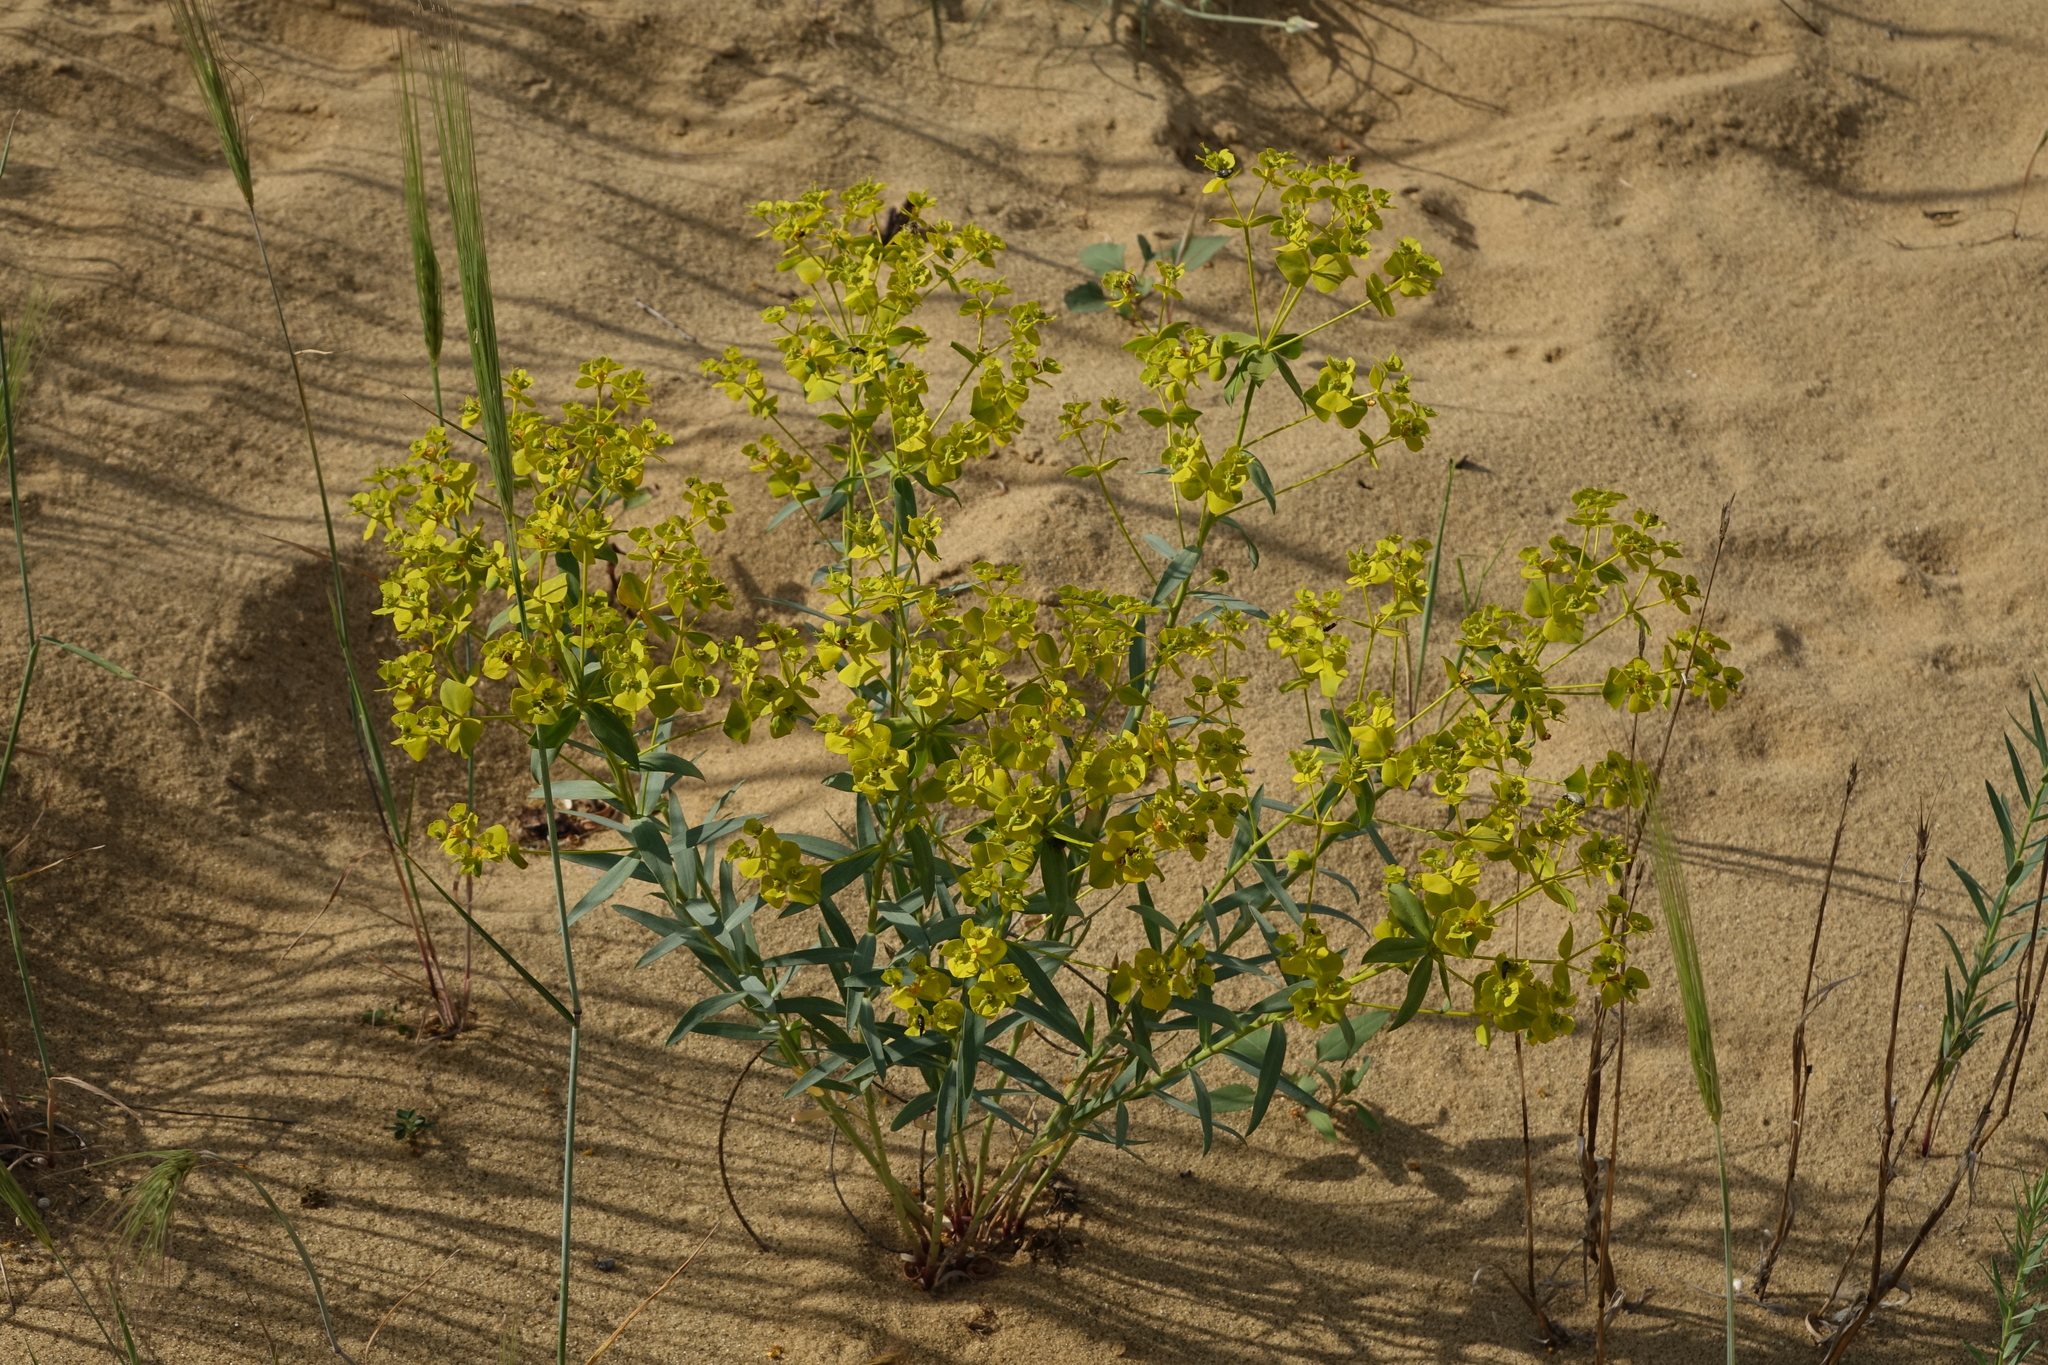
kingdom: Plantae
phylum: Tracheophyta
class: Magnoliopsida
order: Malpighiales
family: Euphorbiaceae
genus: Euphorbia
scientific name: Euphorbia seguieriana
